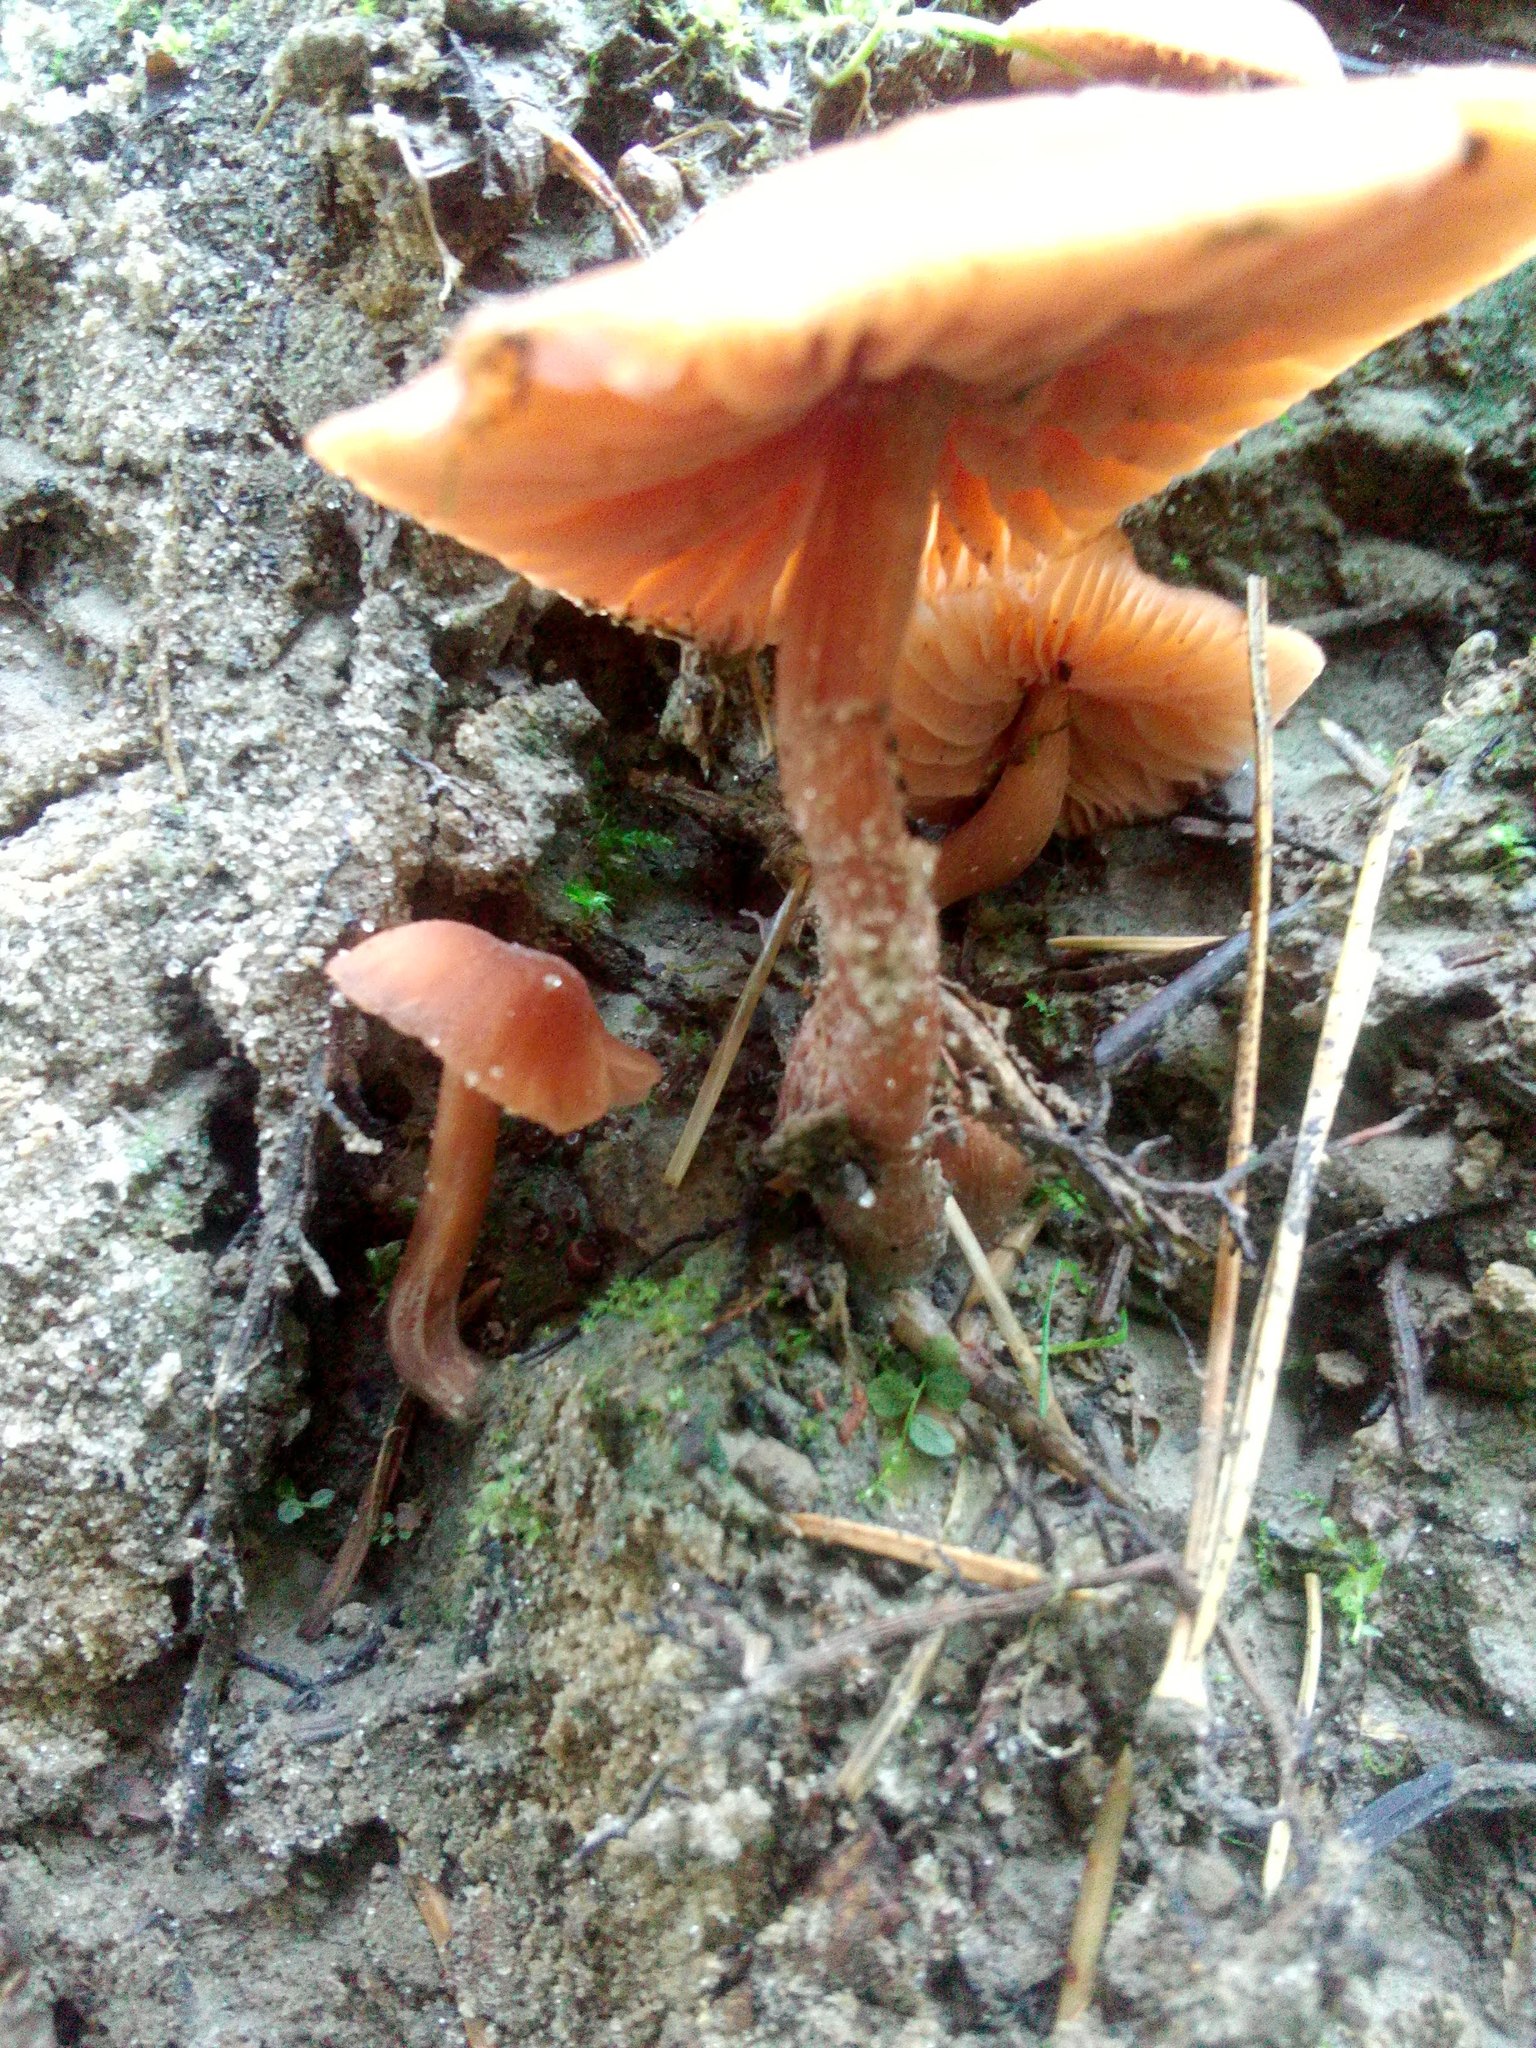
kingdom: Fungi
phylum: Basidiomycota
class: Agaricomycetes
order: Agaricales
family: Hydnangiaceae
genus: Laccaria
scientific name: Laccaria laccata
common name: Deceiver
